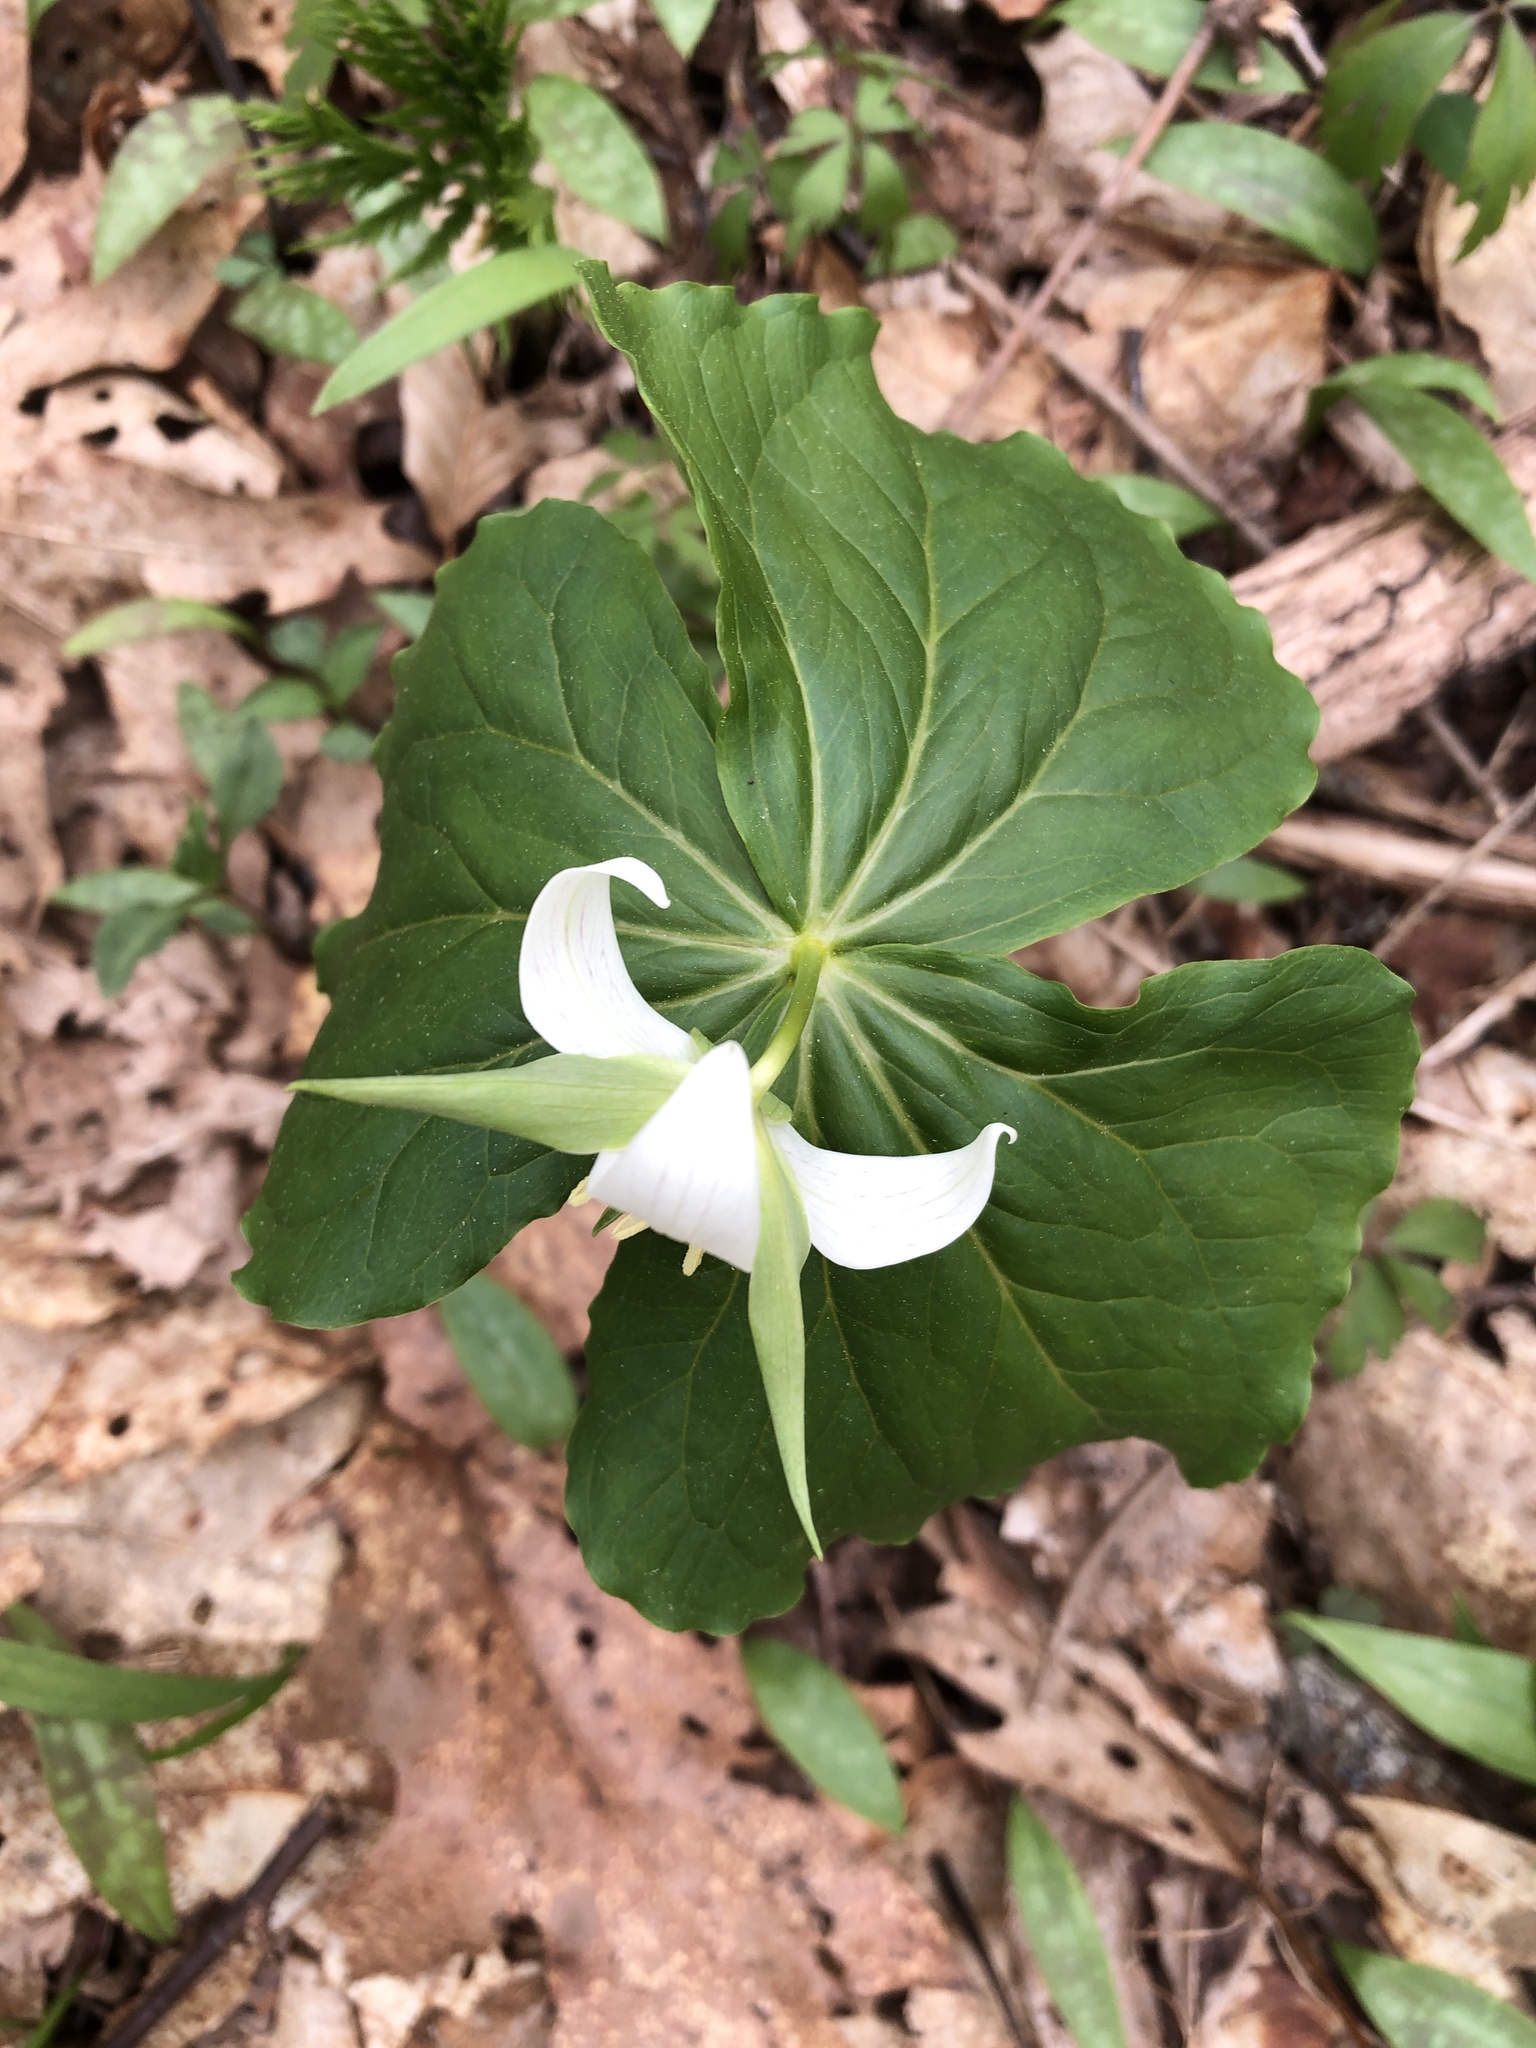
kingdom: Plantae
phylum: Tracheophyta
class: Liliopsida
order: Liliales
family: Melanthiaceae
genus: Trillium
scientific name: Trillium erectum
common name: Purple trillium
